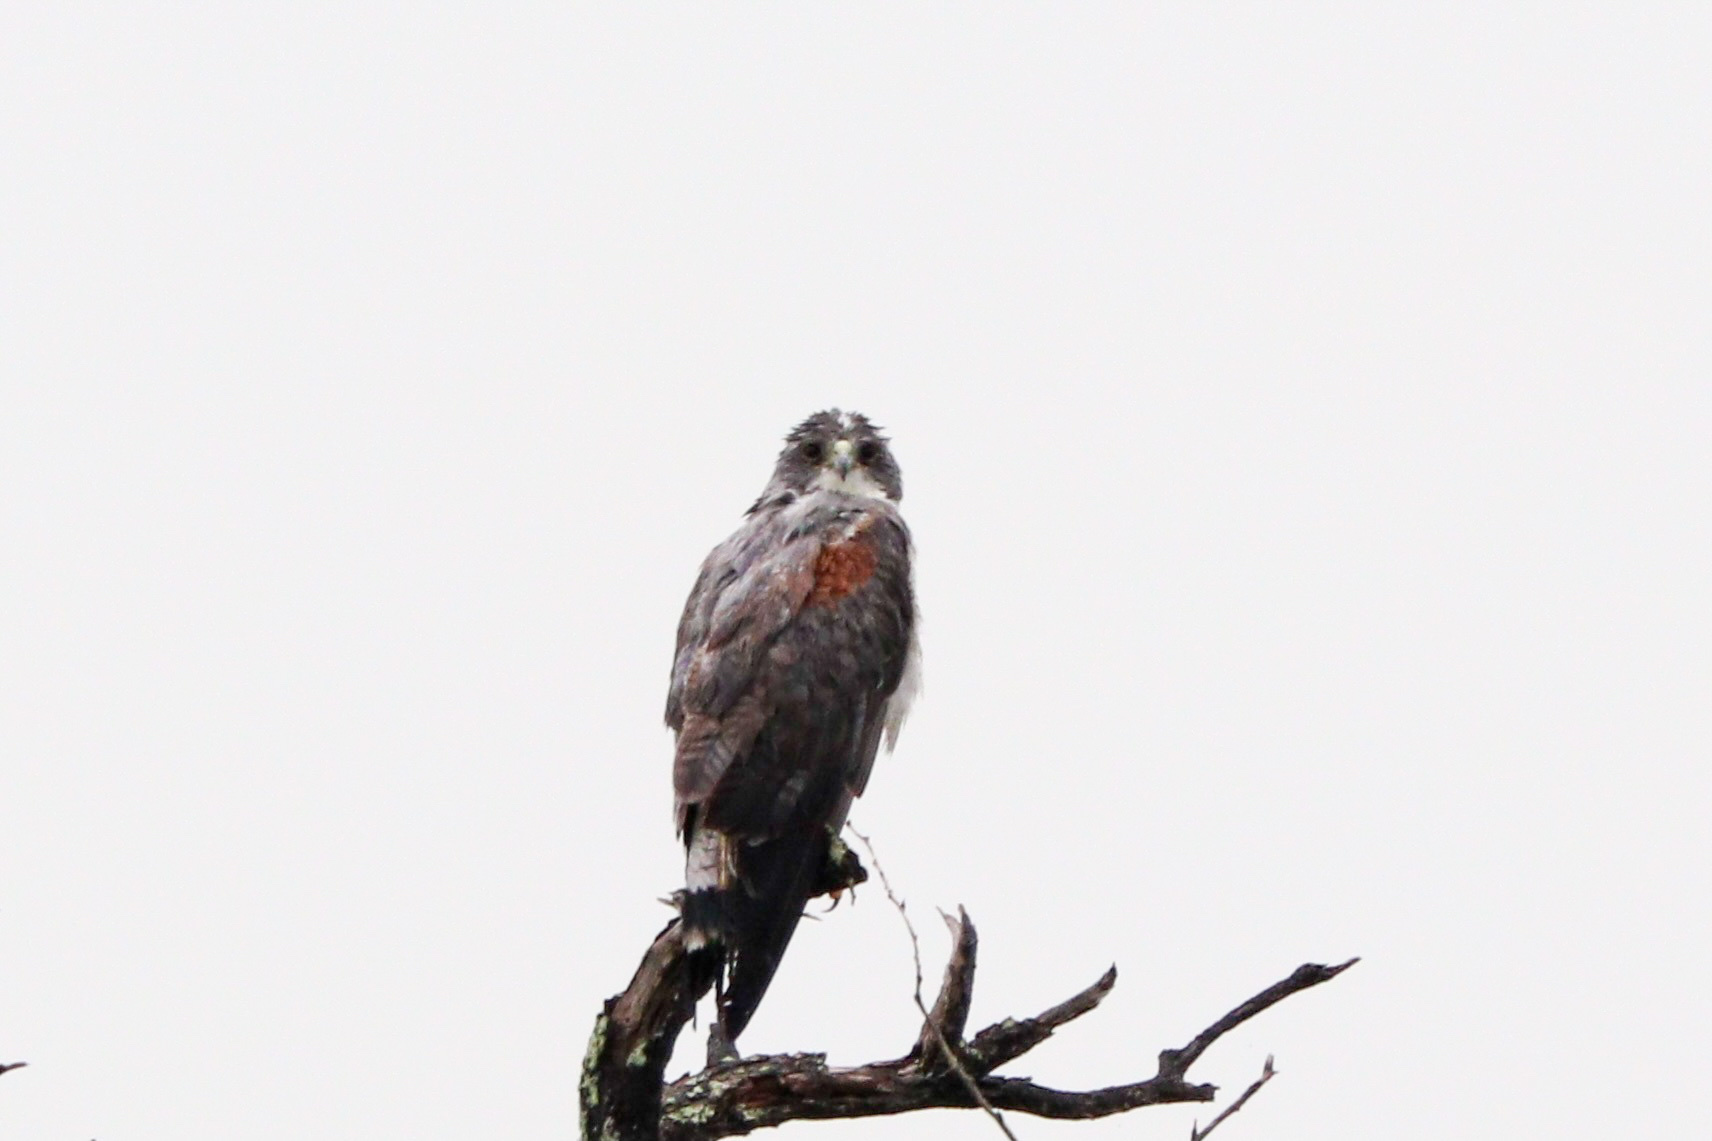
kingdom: Animalia
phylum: Chordata
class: Aves
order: Accipitriformes
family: Accipitridae
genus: Buteo
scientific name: Buteo albicaudatus
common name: White-tailed hawk
